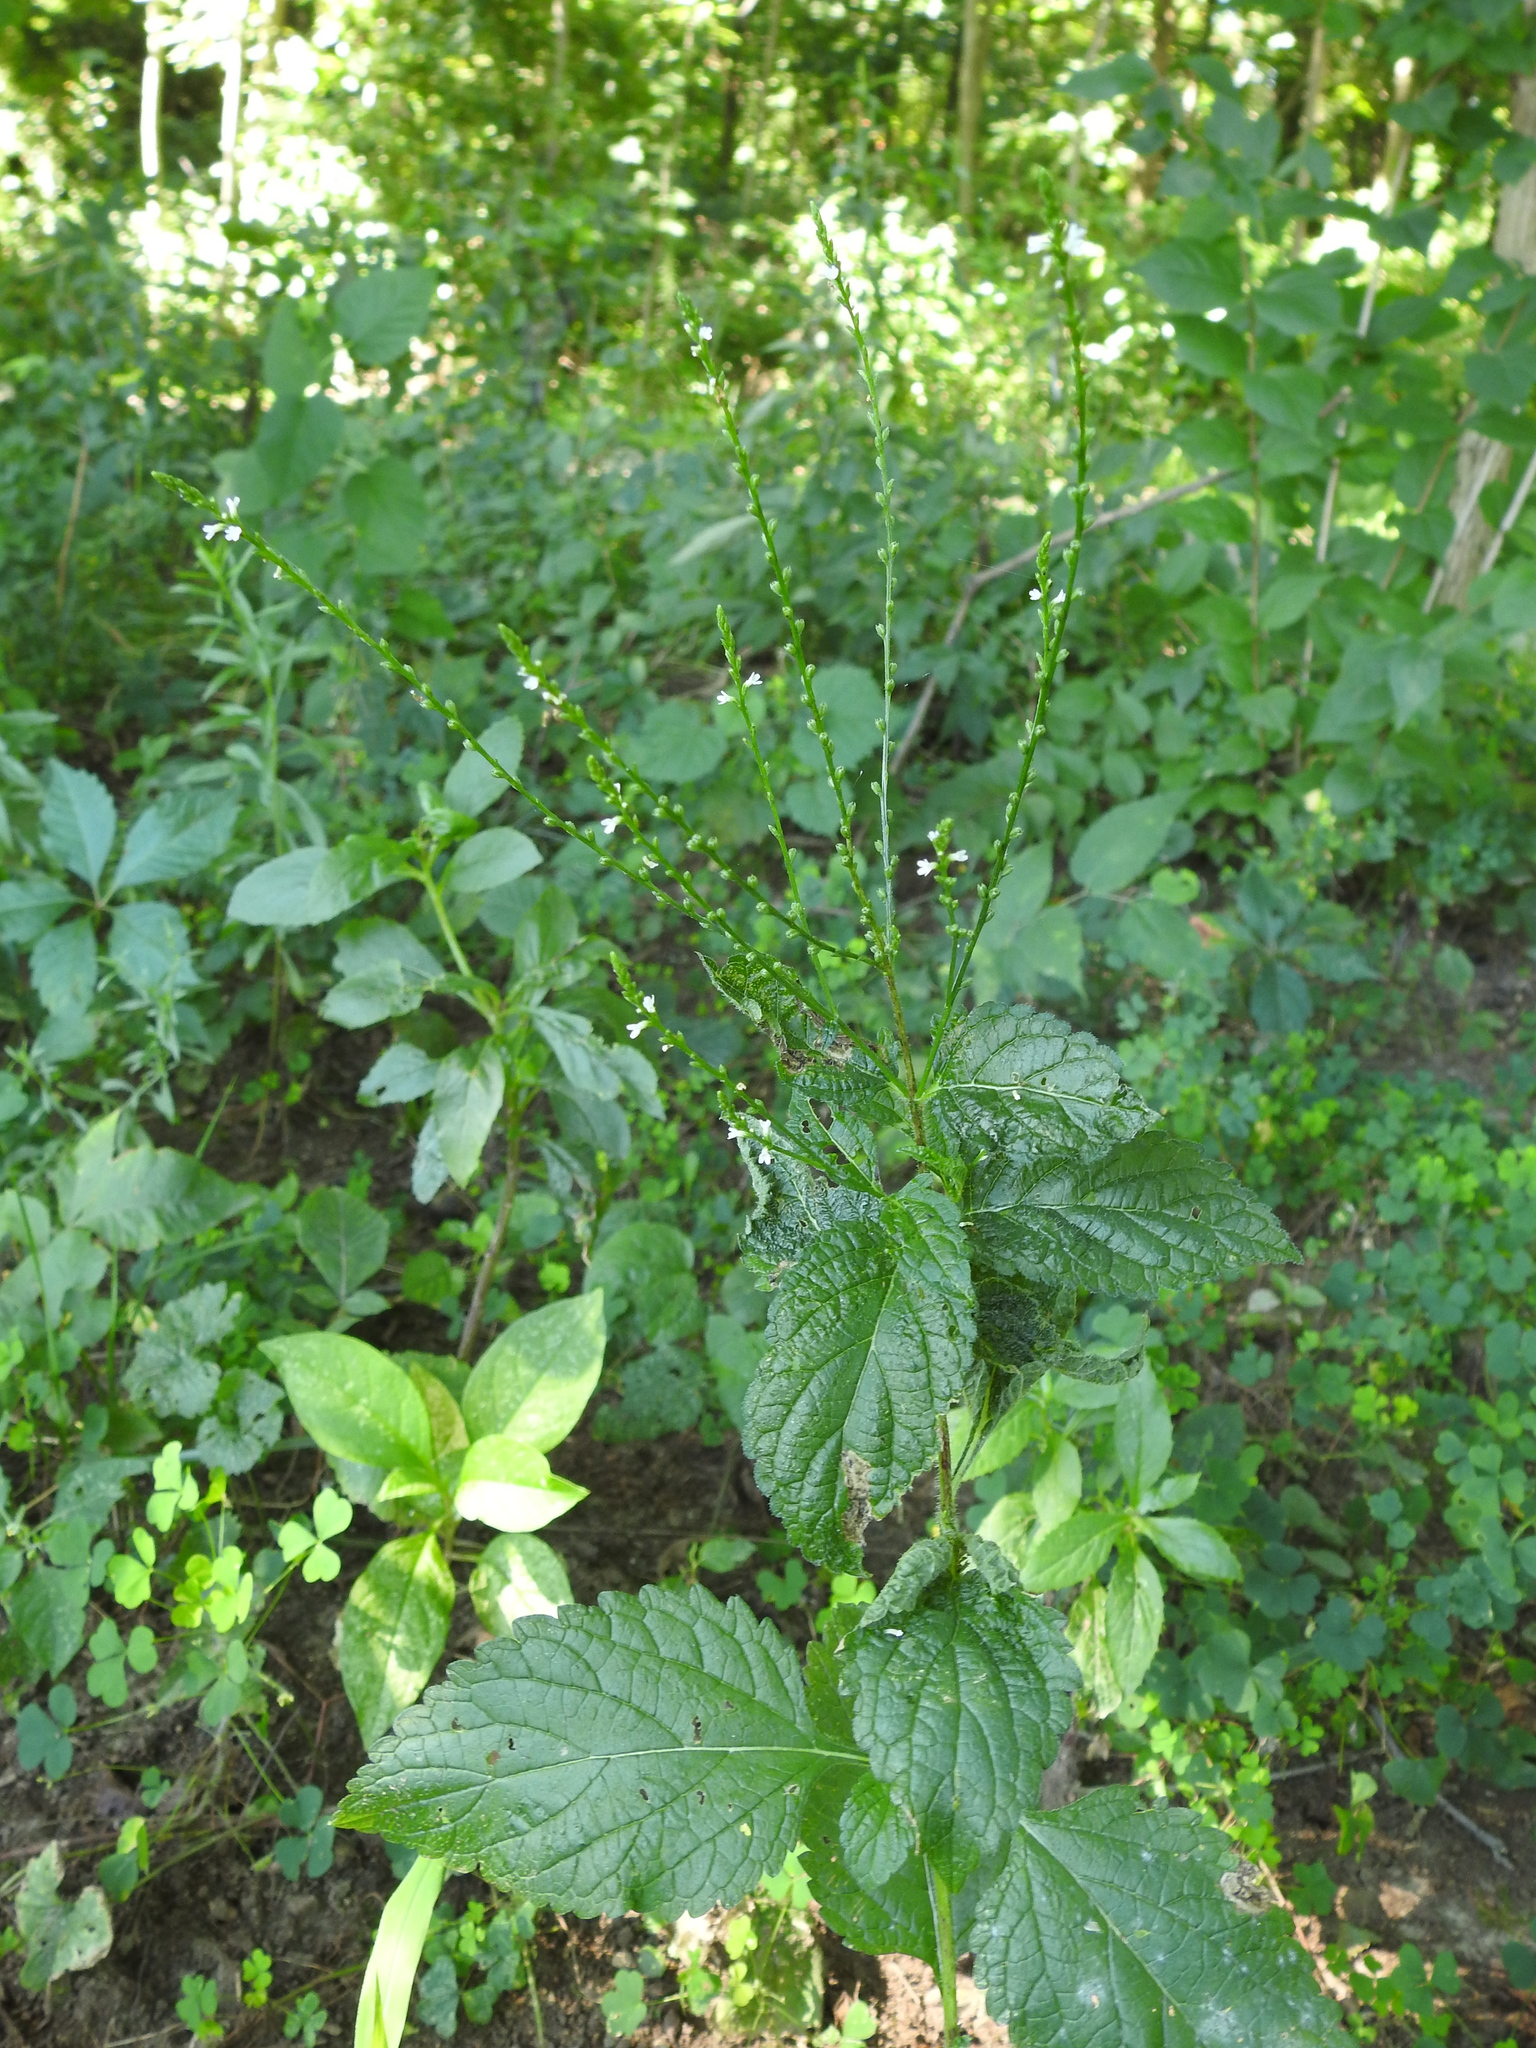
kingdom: Plantae
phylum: Tracheophyta
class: Magnoliopsida
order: Lamiales
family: Verbenaceae
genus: Verbena
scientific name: Verbena urticifolia
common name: Nettle-leaved vervain
